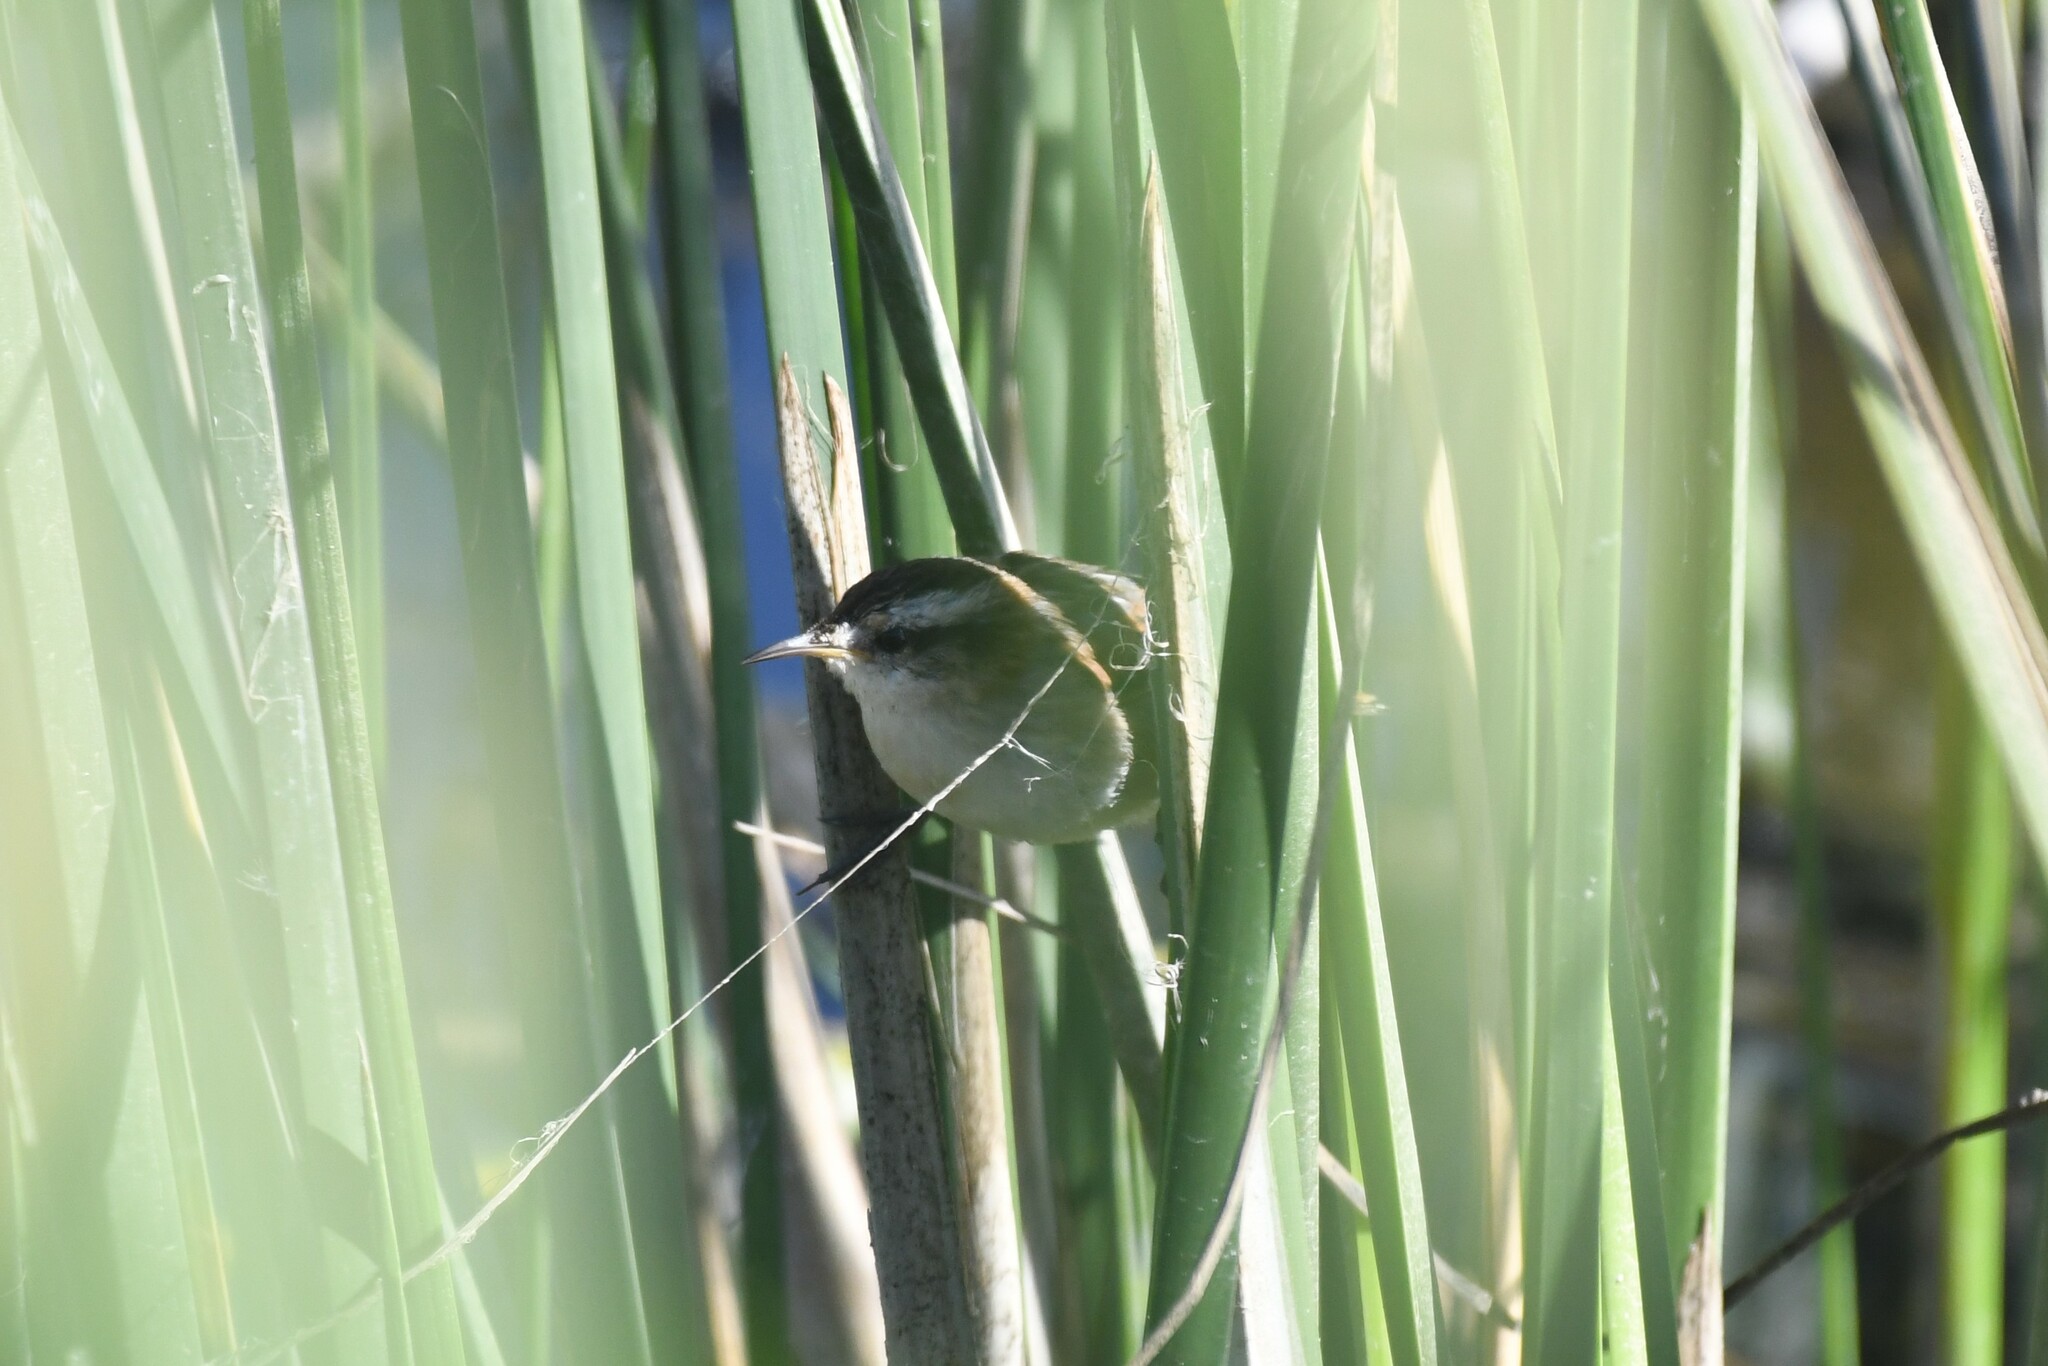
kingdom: Animalia
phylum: Chordata
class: Aves
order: Passeriformes
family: Furnariidae
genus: Phleocryptes
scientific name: Phleocryptes melanops
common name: Wren-like rushbird
